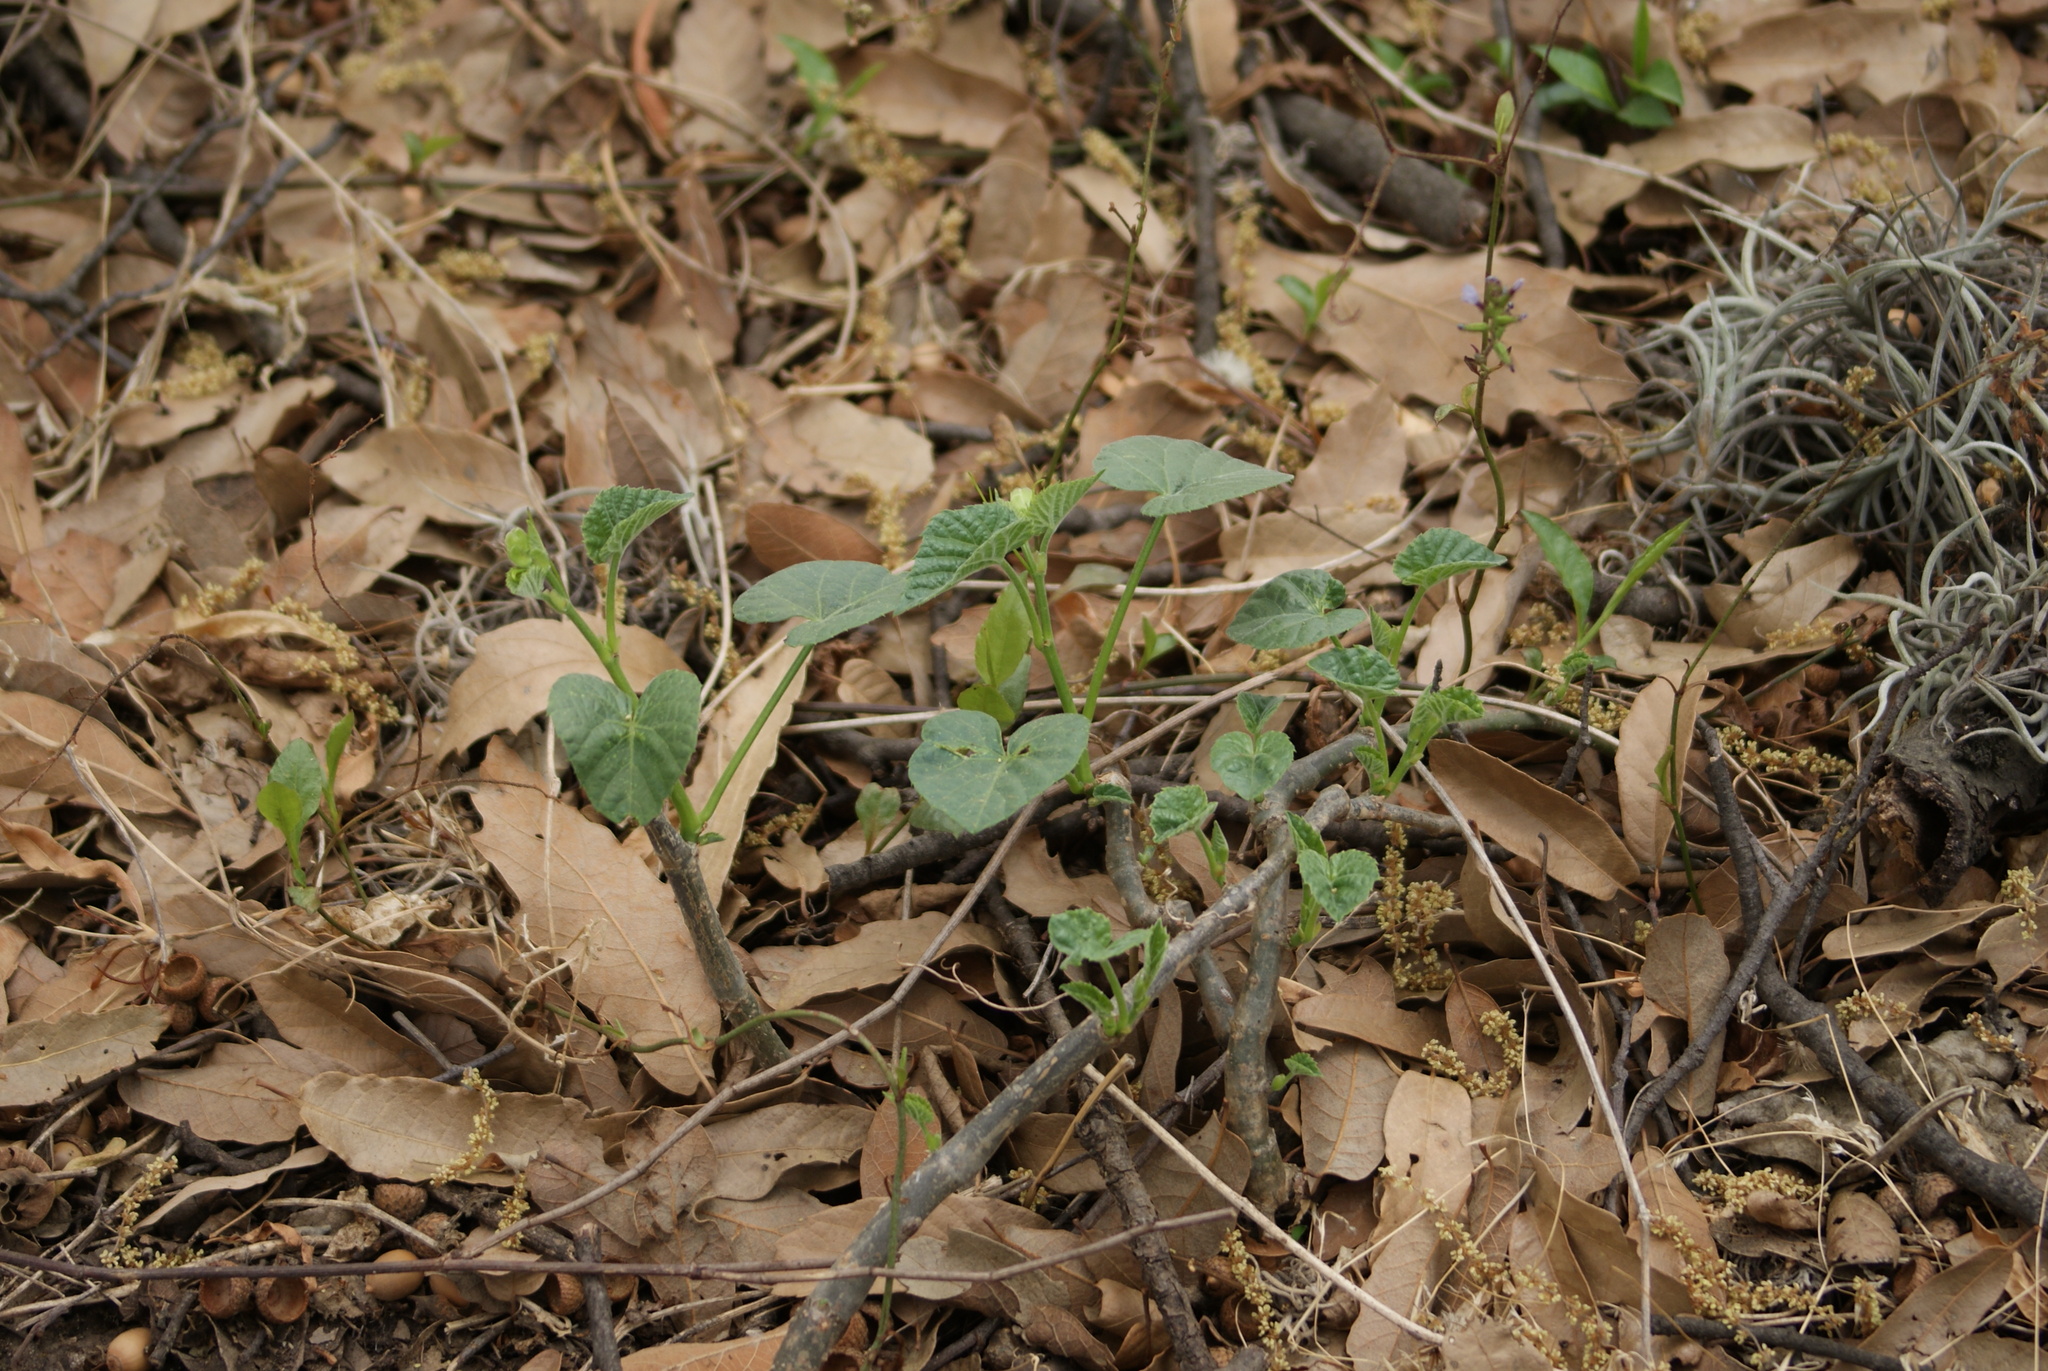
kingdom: Plantae
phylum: Tracheophyta
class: Magnoliopsida
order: Vitales
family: Vitaceae
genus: Cissus
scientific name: Cissus verticillata
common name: Princess vine
